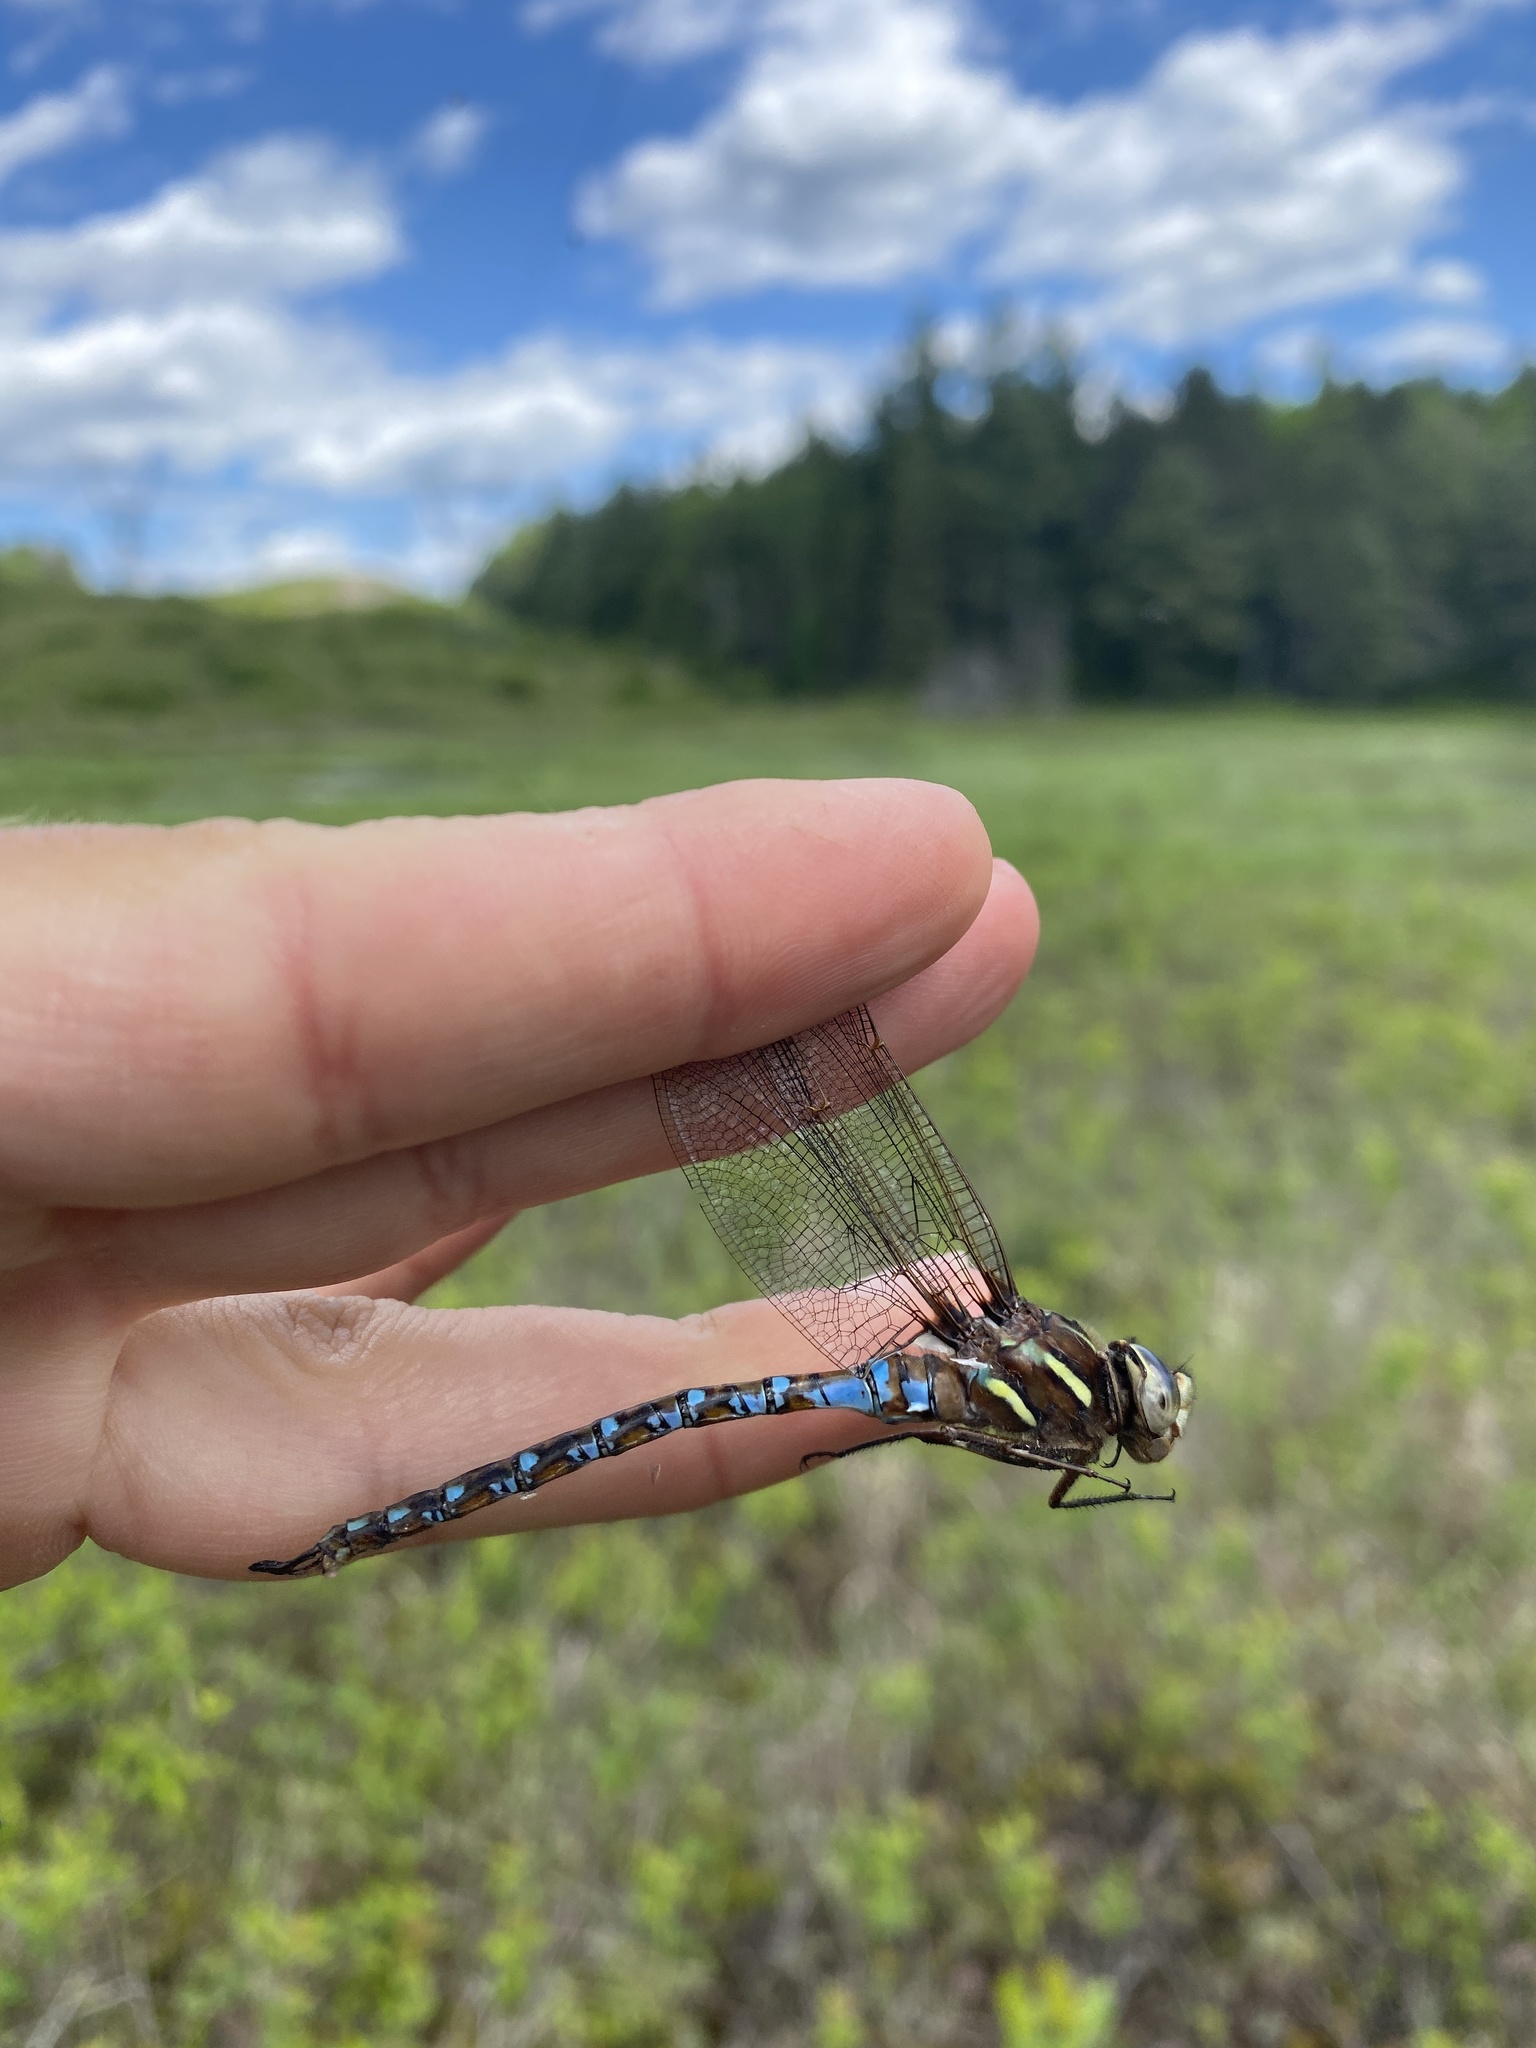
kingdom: Animalia
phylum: Arthropoda
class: Insecta
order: Odonata
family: Aeshnidae
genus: Basiaeschna
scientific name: Basiaeschna janata
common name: Springtime darner
